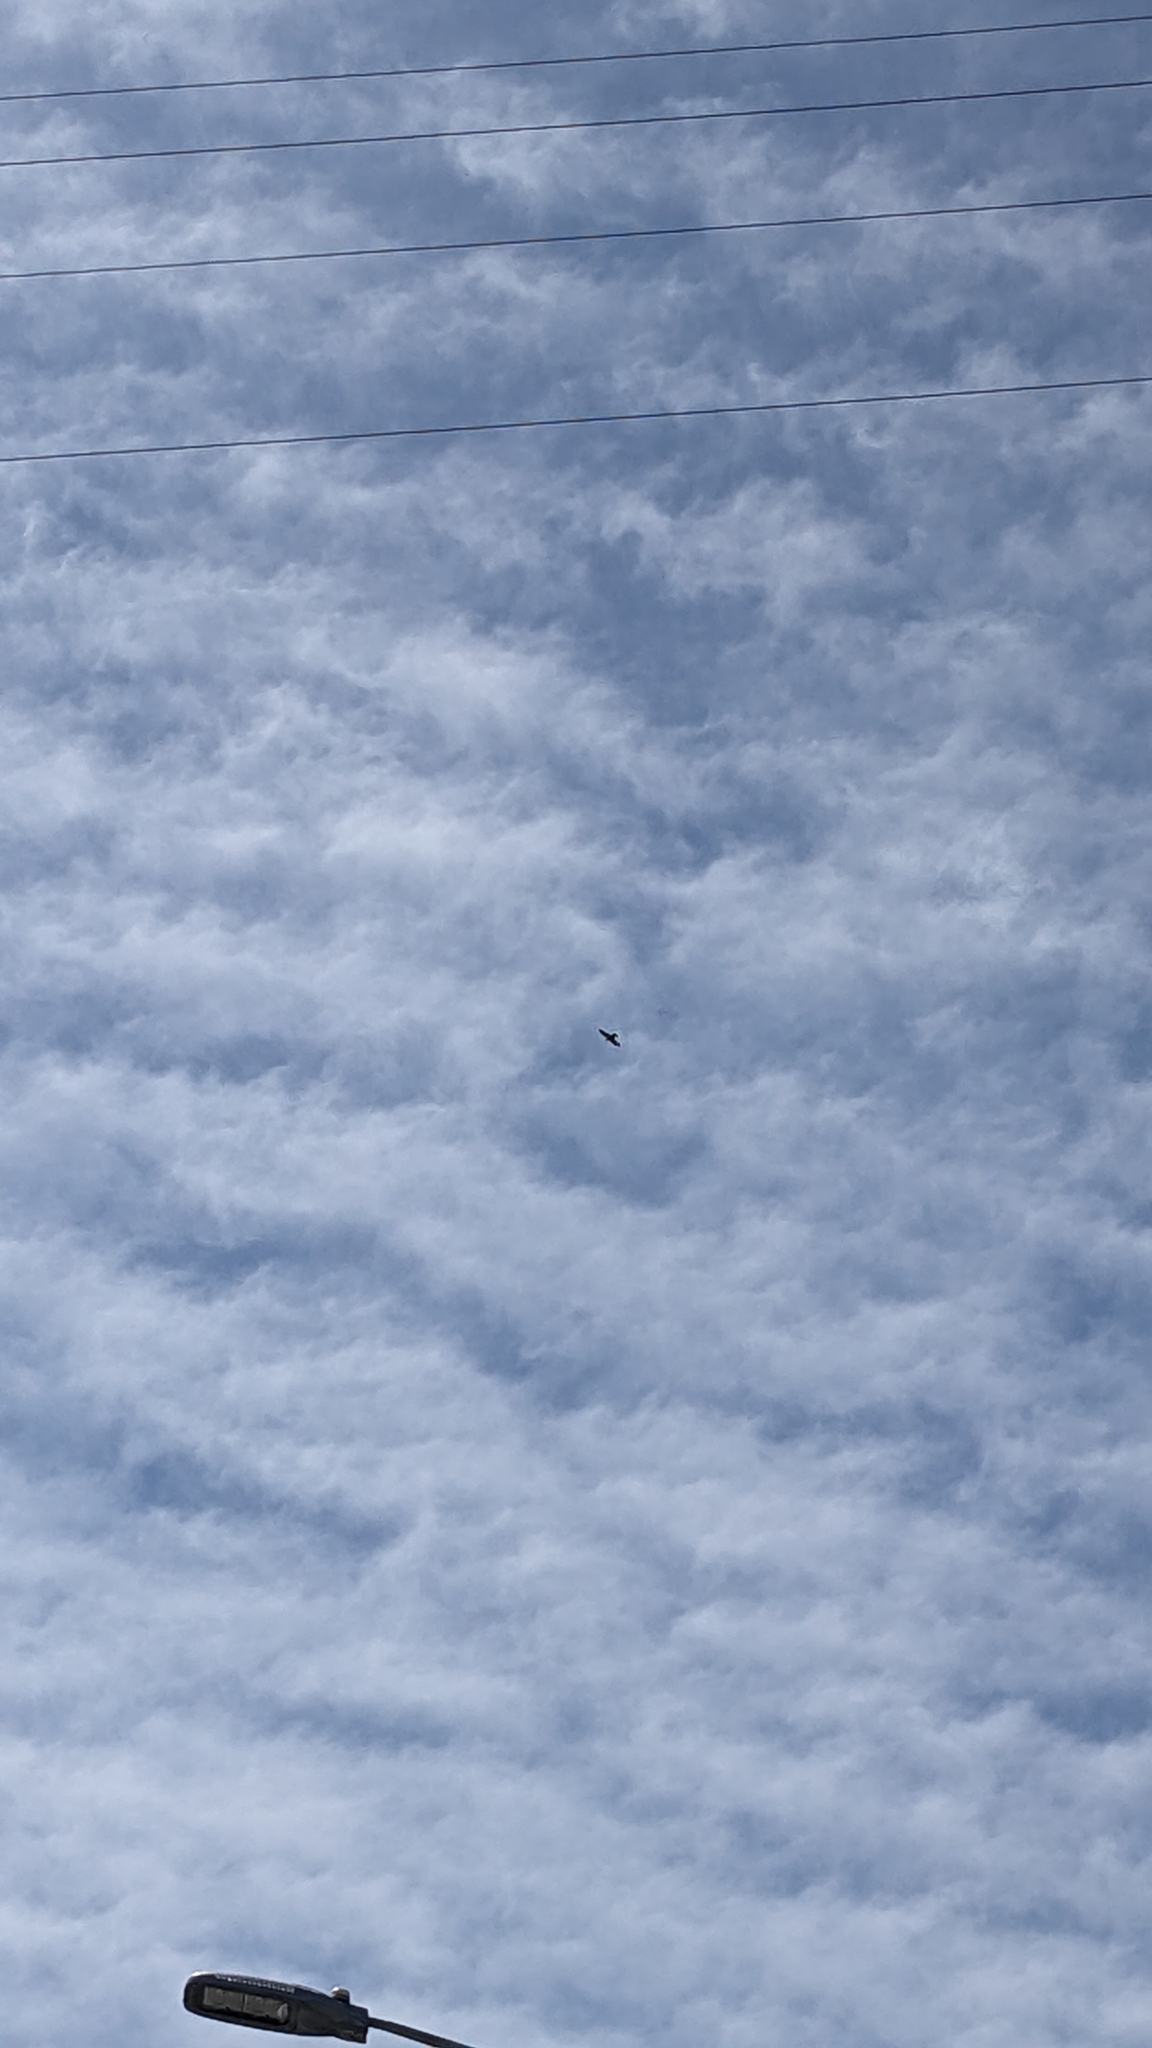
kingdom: Animalia
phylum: Chordata
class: Aves
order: Falconiformes
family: Falconidae
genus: Falco
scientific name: Falco novaeseelandiae
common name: New zealand falcon
